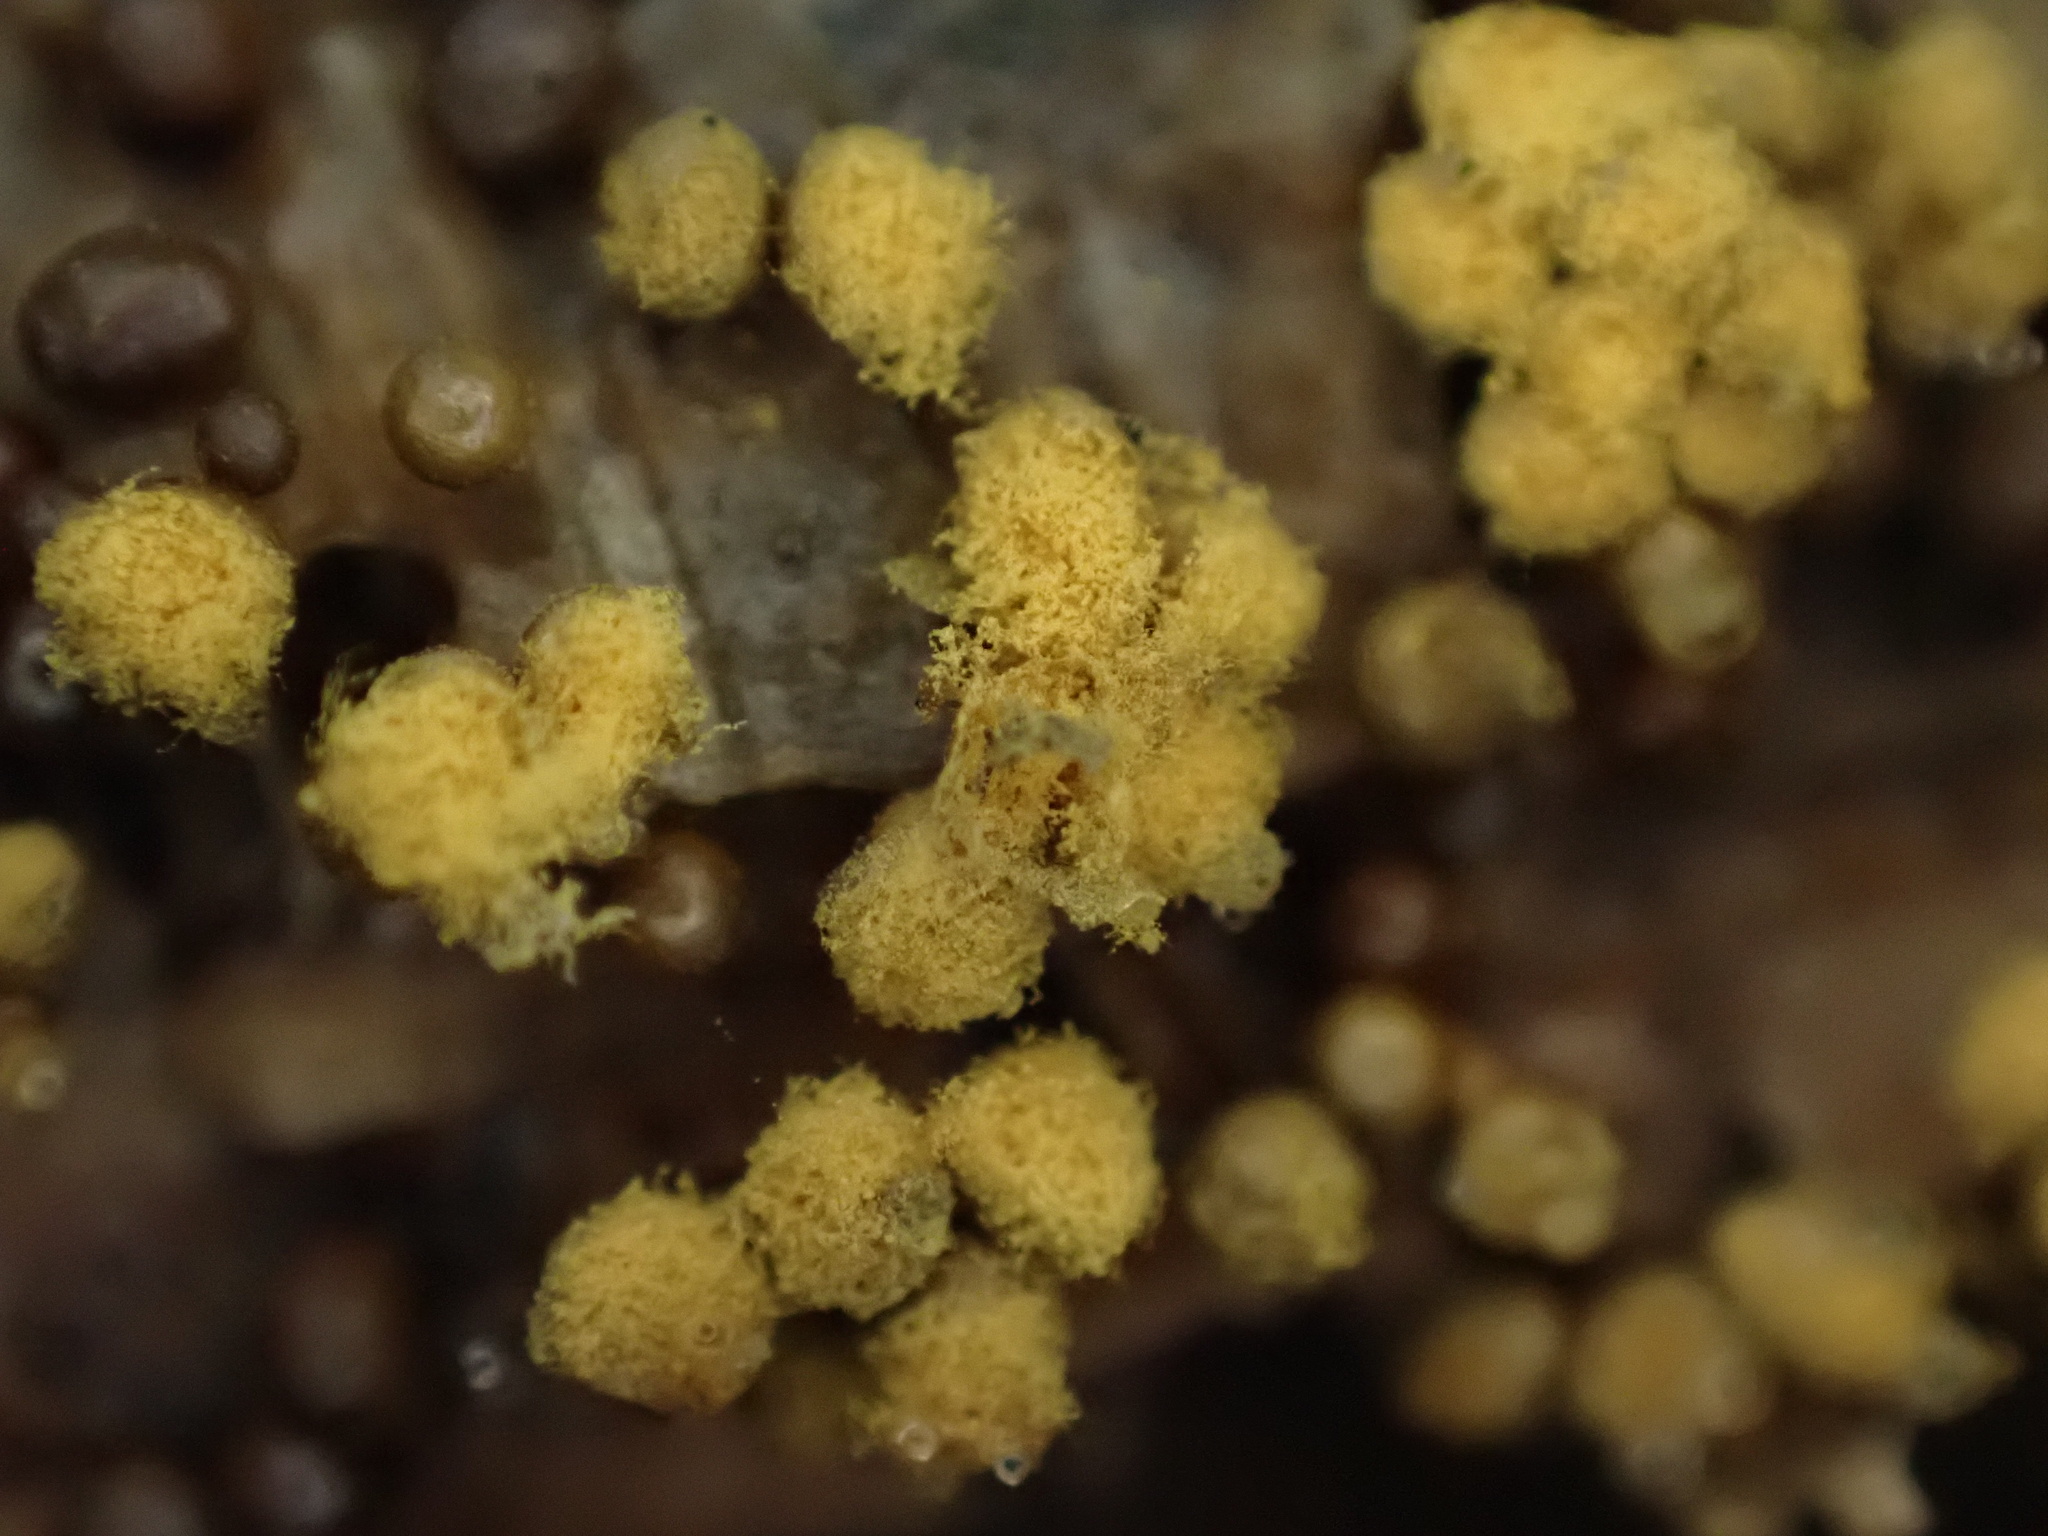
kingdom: Protozoa
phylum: Mycetozoa
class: Myxomycetes
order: Trichiales
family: Arcyriaceae
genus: Hemitrichia
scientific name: Hemitrichia calyculata
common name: Push pin slime mold
